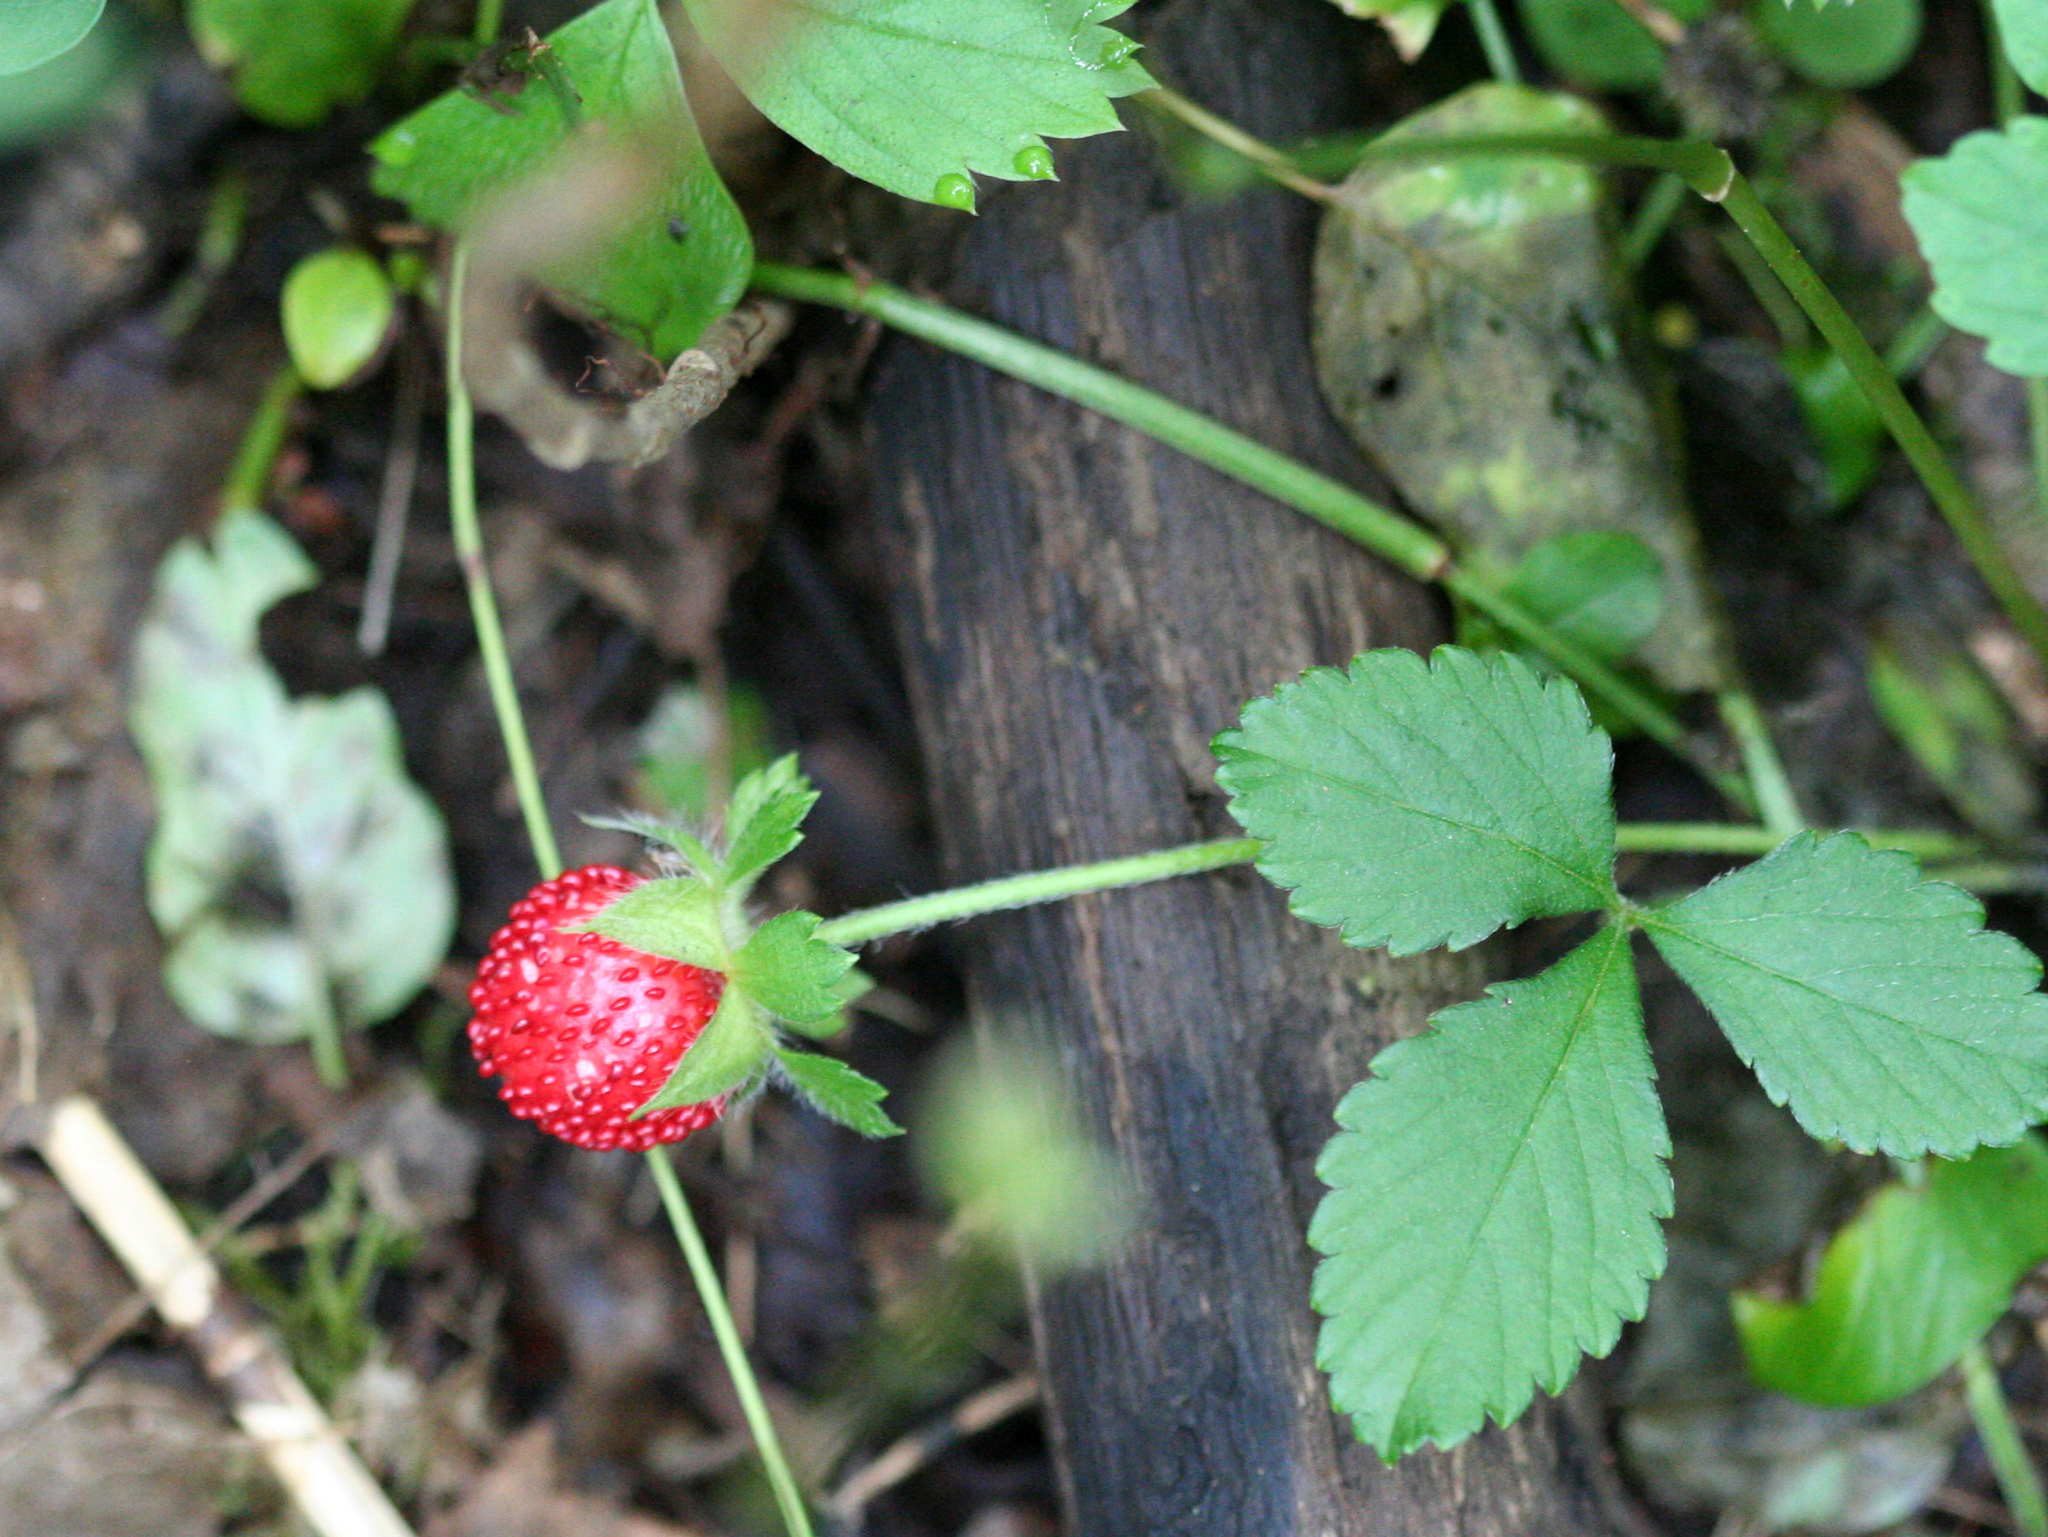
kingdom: Plantae
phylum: Tracheophyta
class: Magnoliopsida
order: Rosales
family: Rosaceae
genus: Potentilla
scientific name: Potentilla indica
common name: Yellow-flowered strawberry
